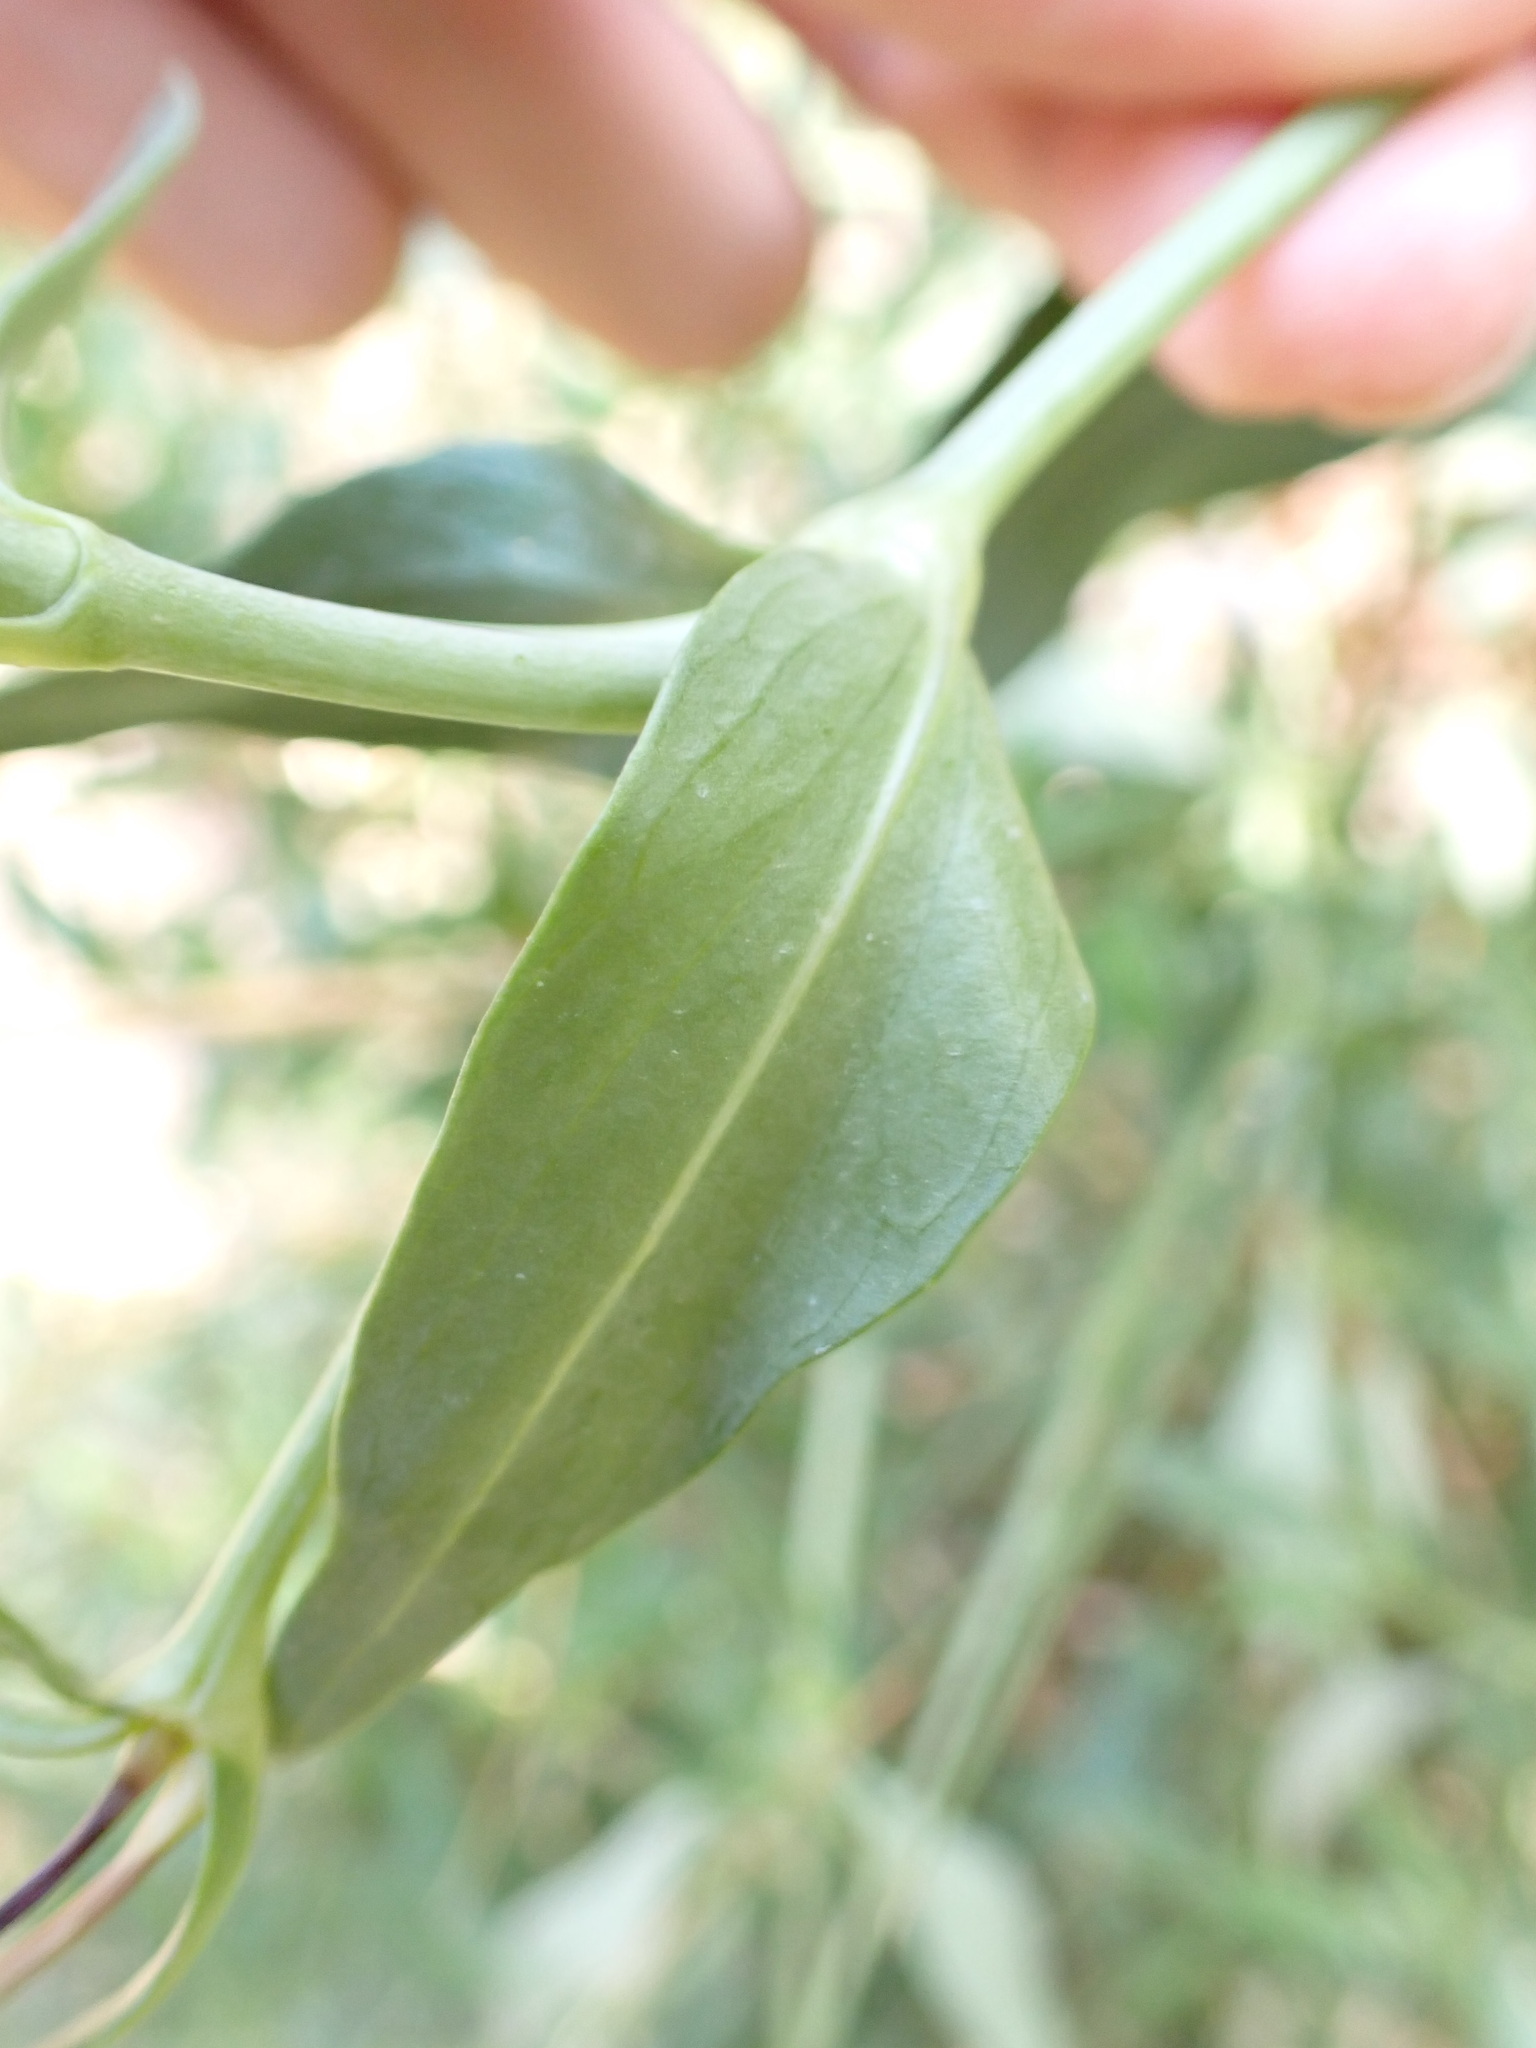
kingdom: Plantae
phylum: Tracheophyta
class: Magnoliopsida
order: Dipsacales
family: Caprifoliaceae
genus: Centranthus
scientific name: Centranthus ruber
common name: Red valerian
